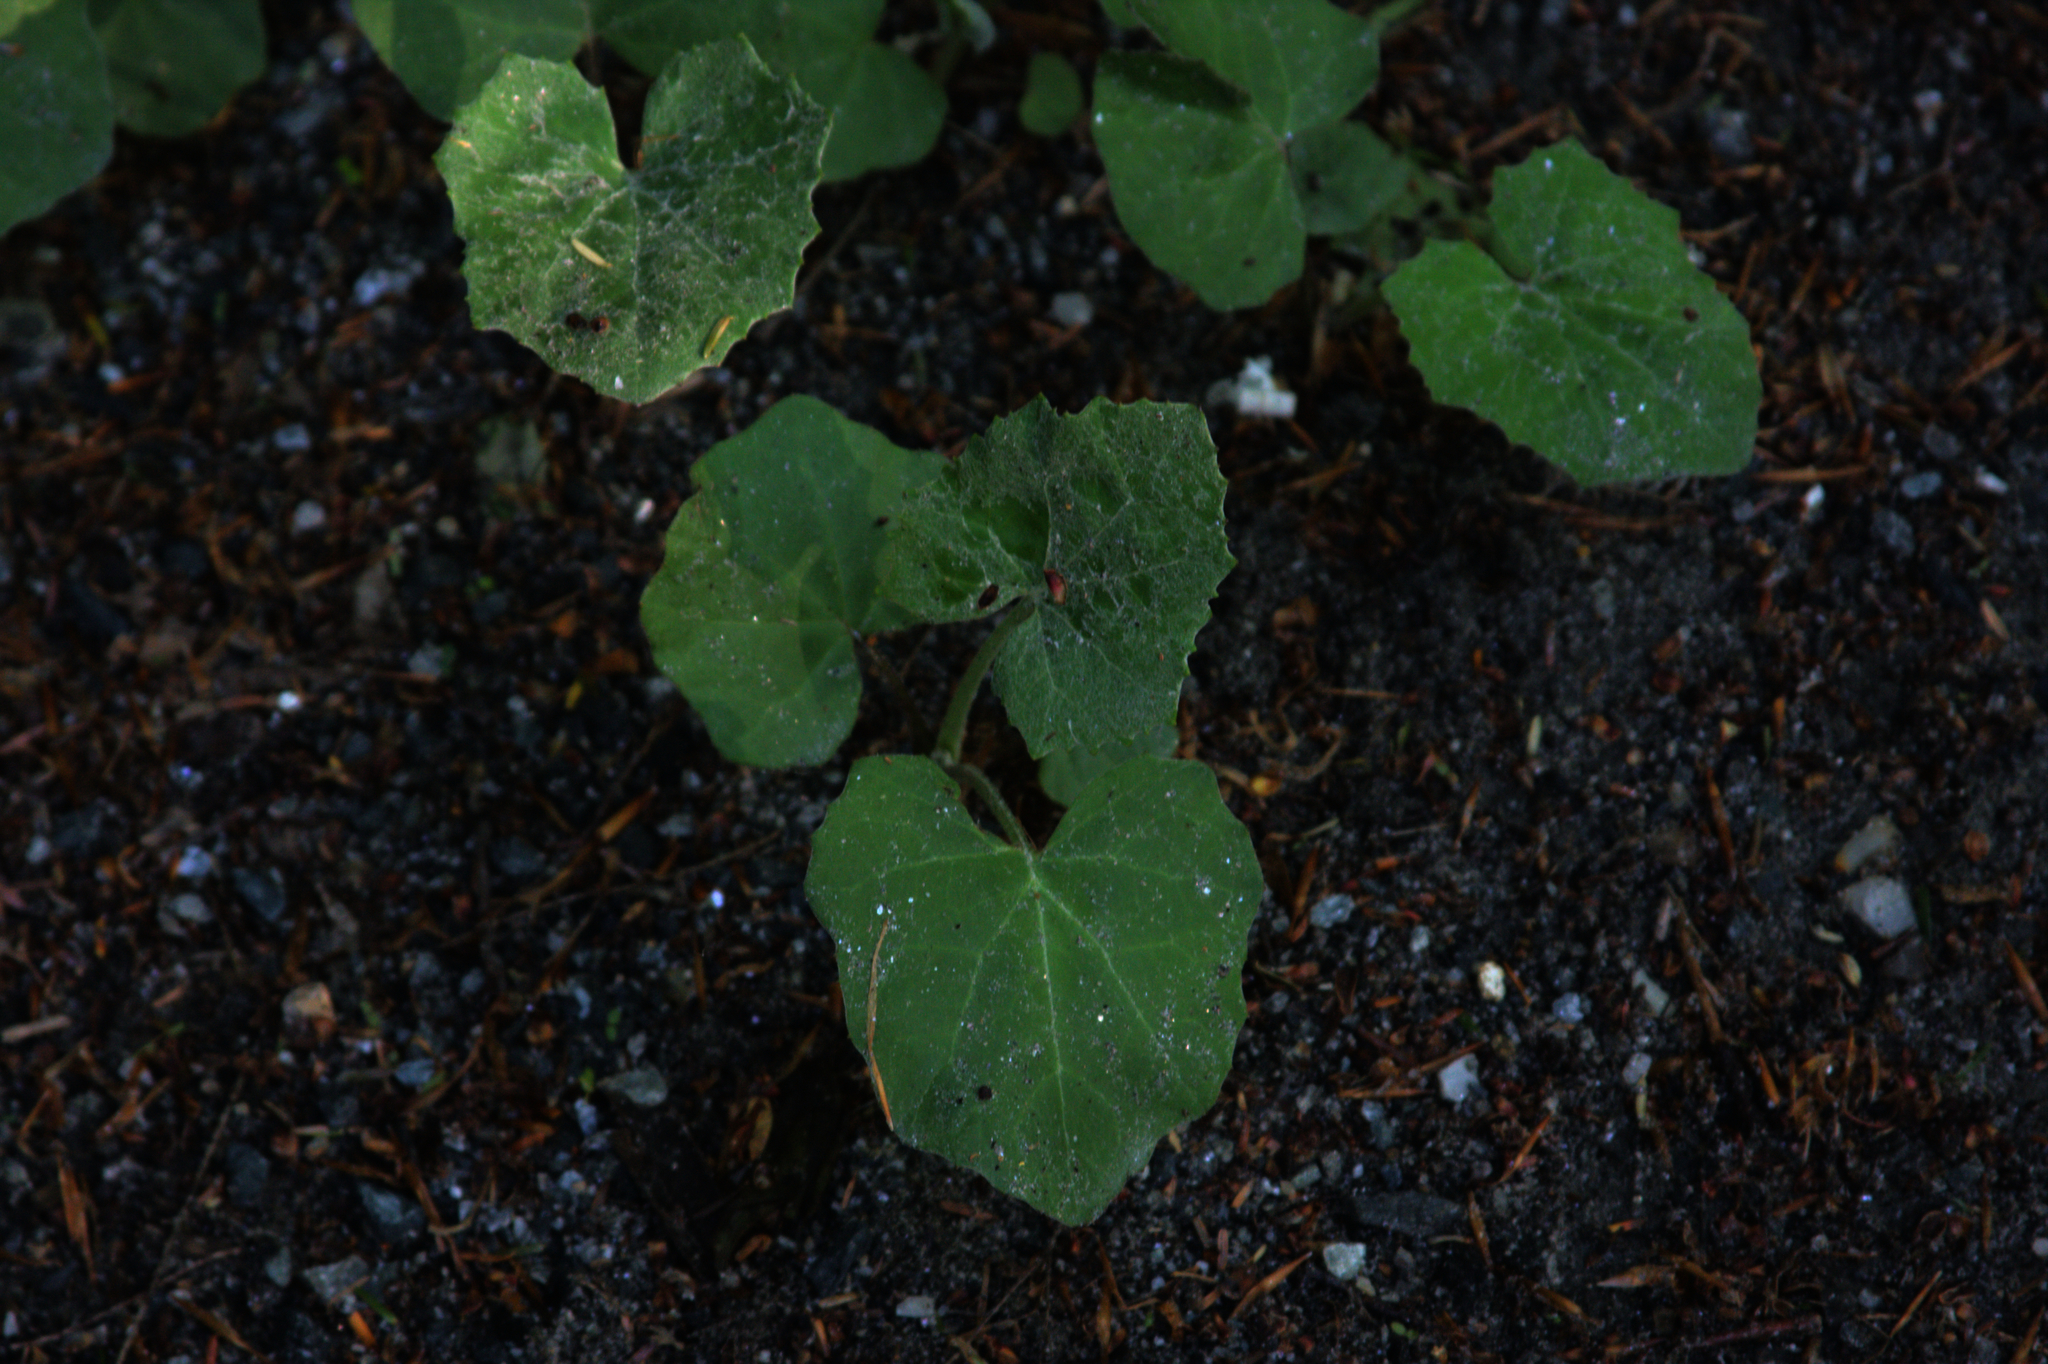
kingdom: Plantae
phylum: Tracheophyta
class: Magnoliopsida
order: Asterales
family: Asteraceae
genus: Tussilago
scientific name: Tussilago farfara
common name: Coltsfoot
